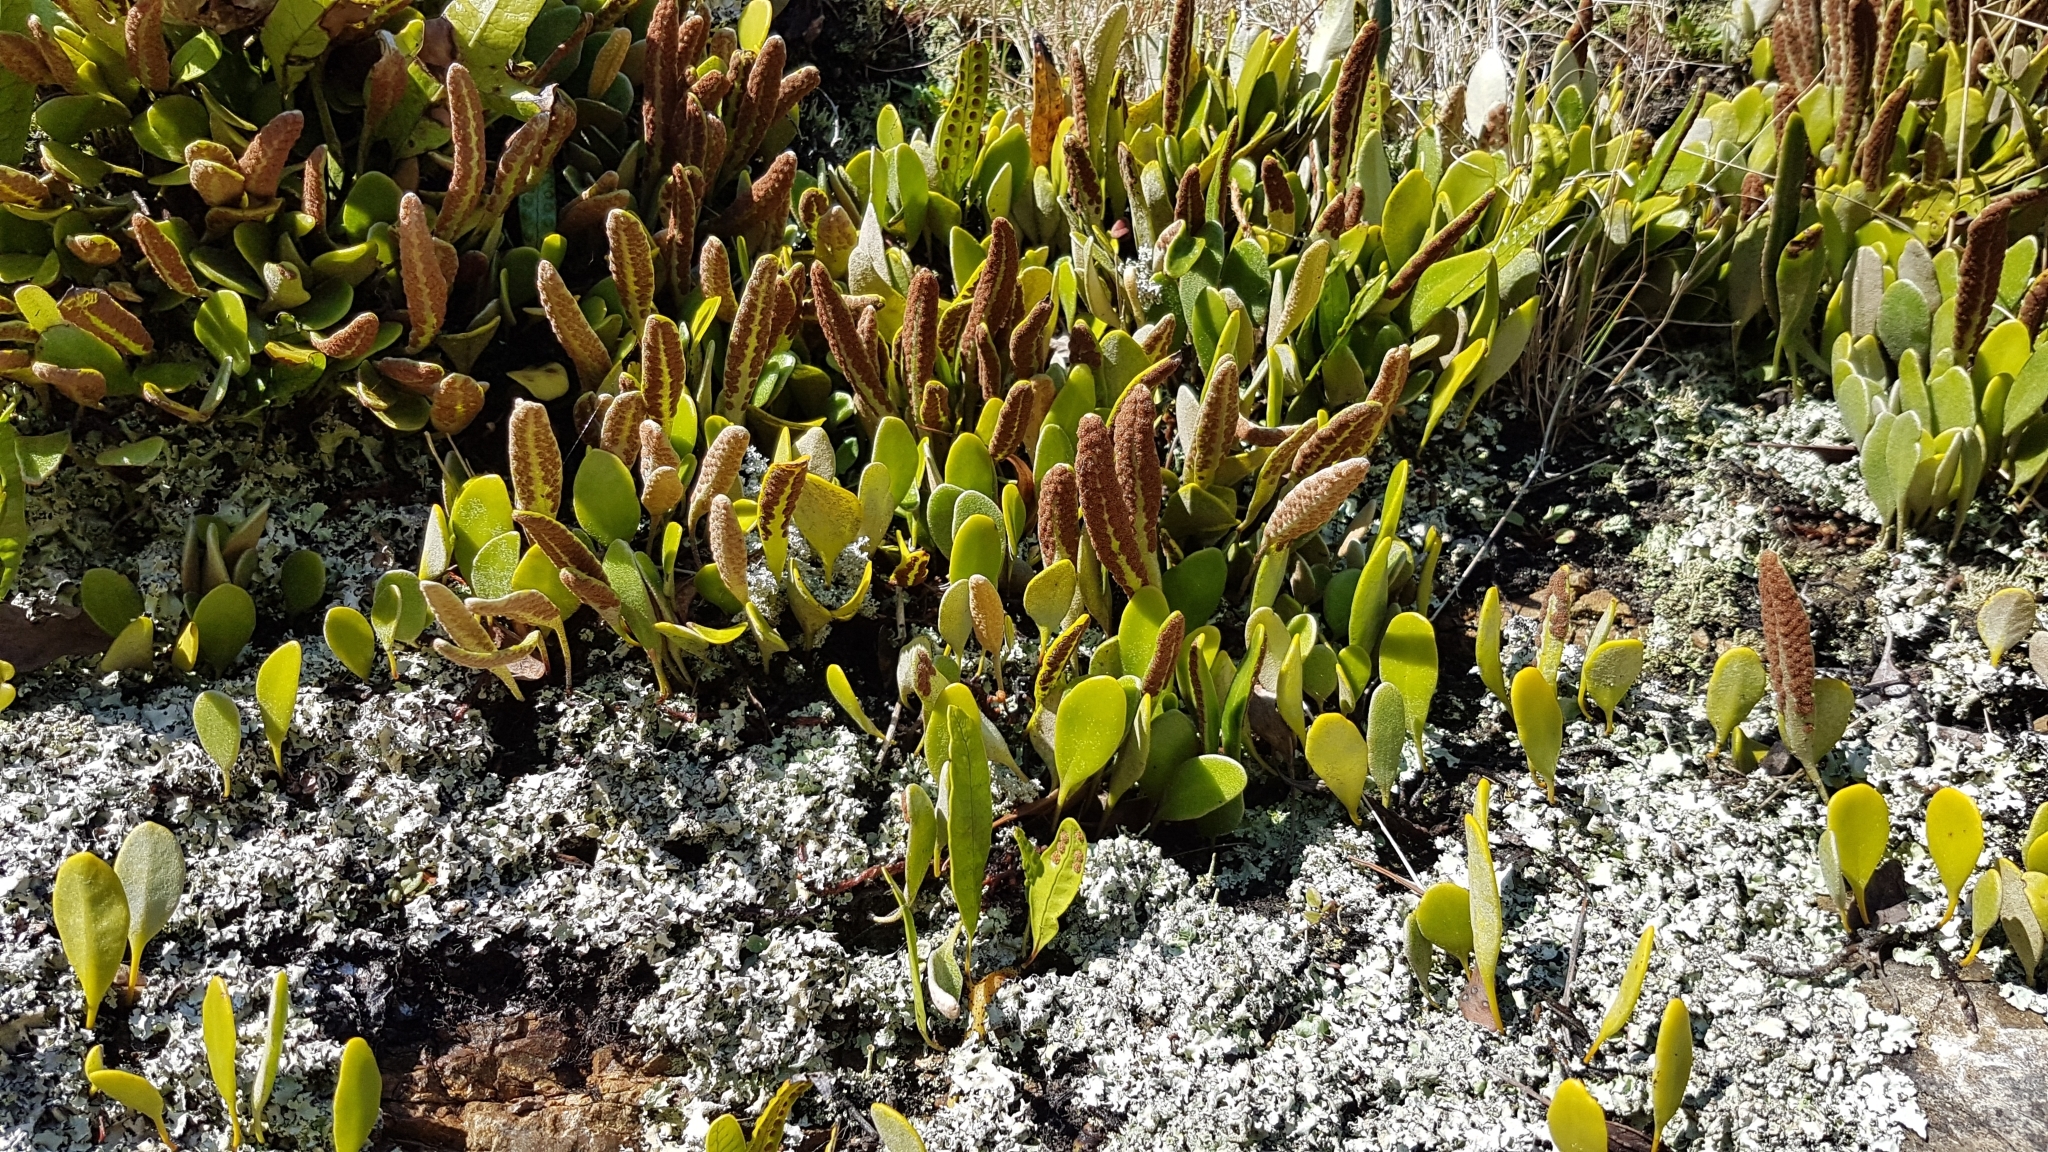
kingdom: Plantae
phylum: Tracheophyta
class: Polypodiopsida
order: Polypodiales
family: Polypodiaceae
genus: Pyrrosia
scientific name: Pyrrosia eleagnifolia
